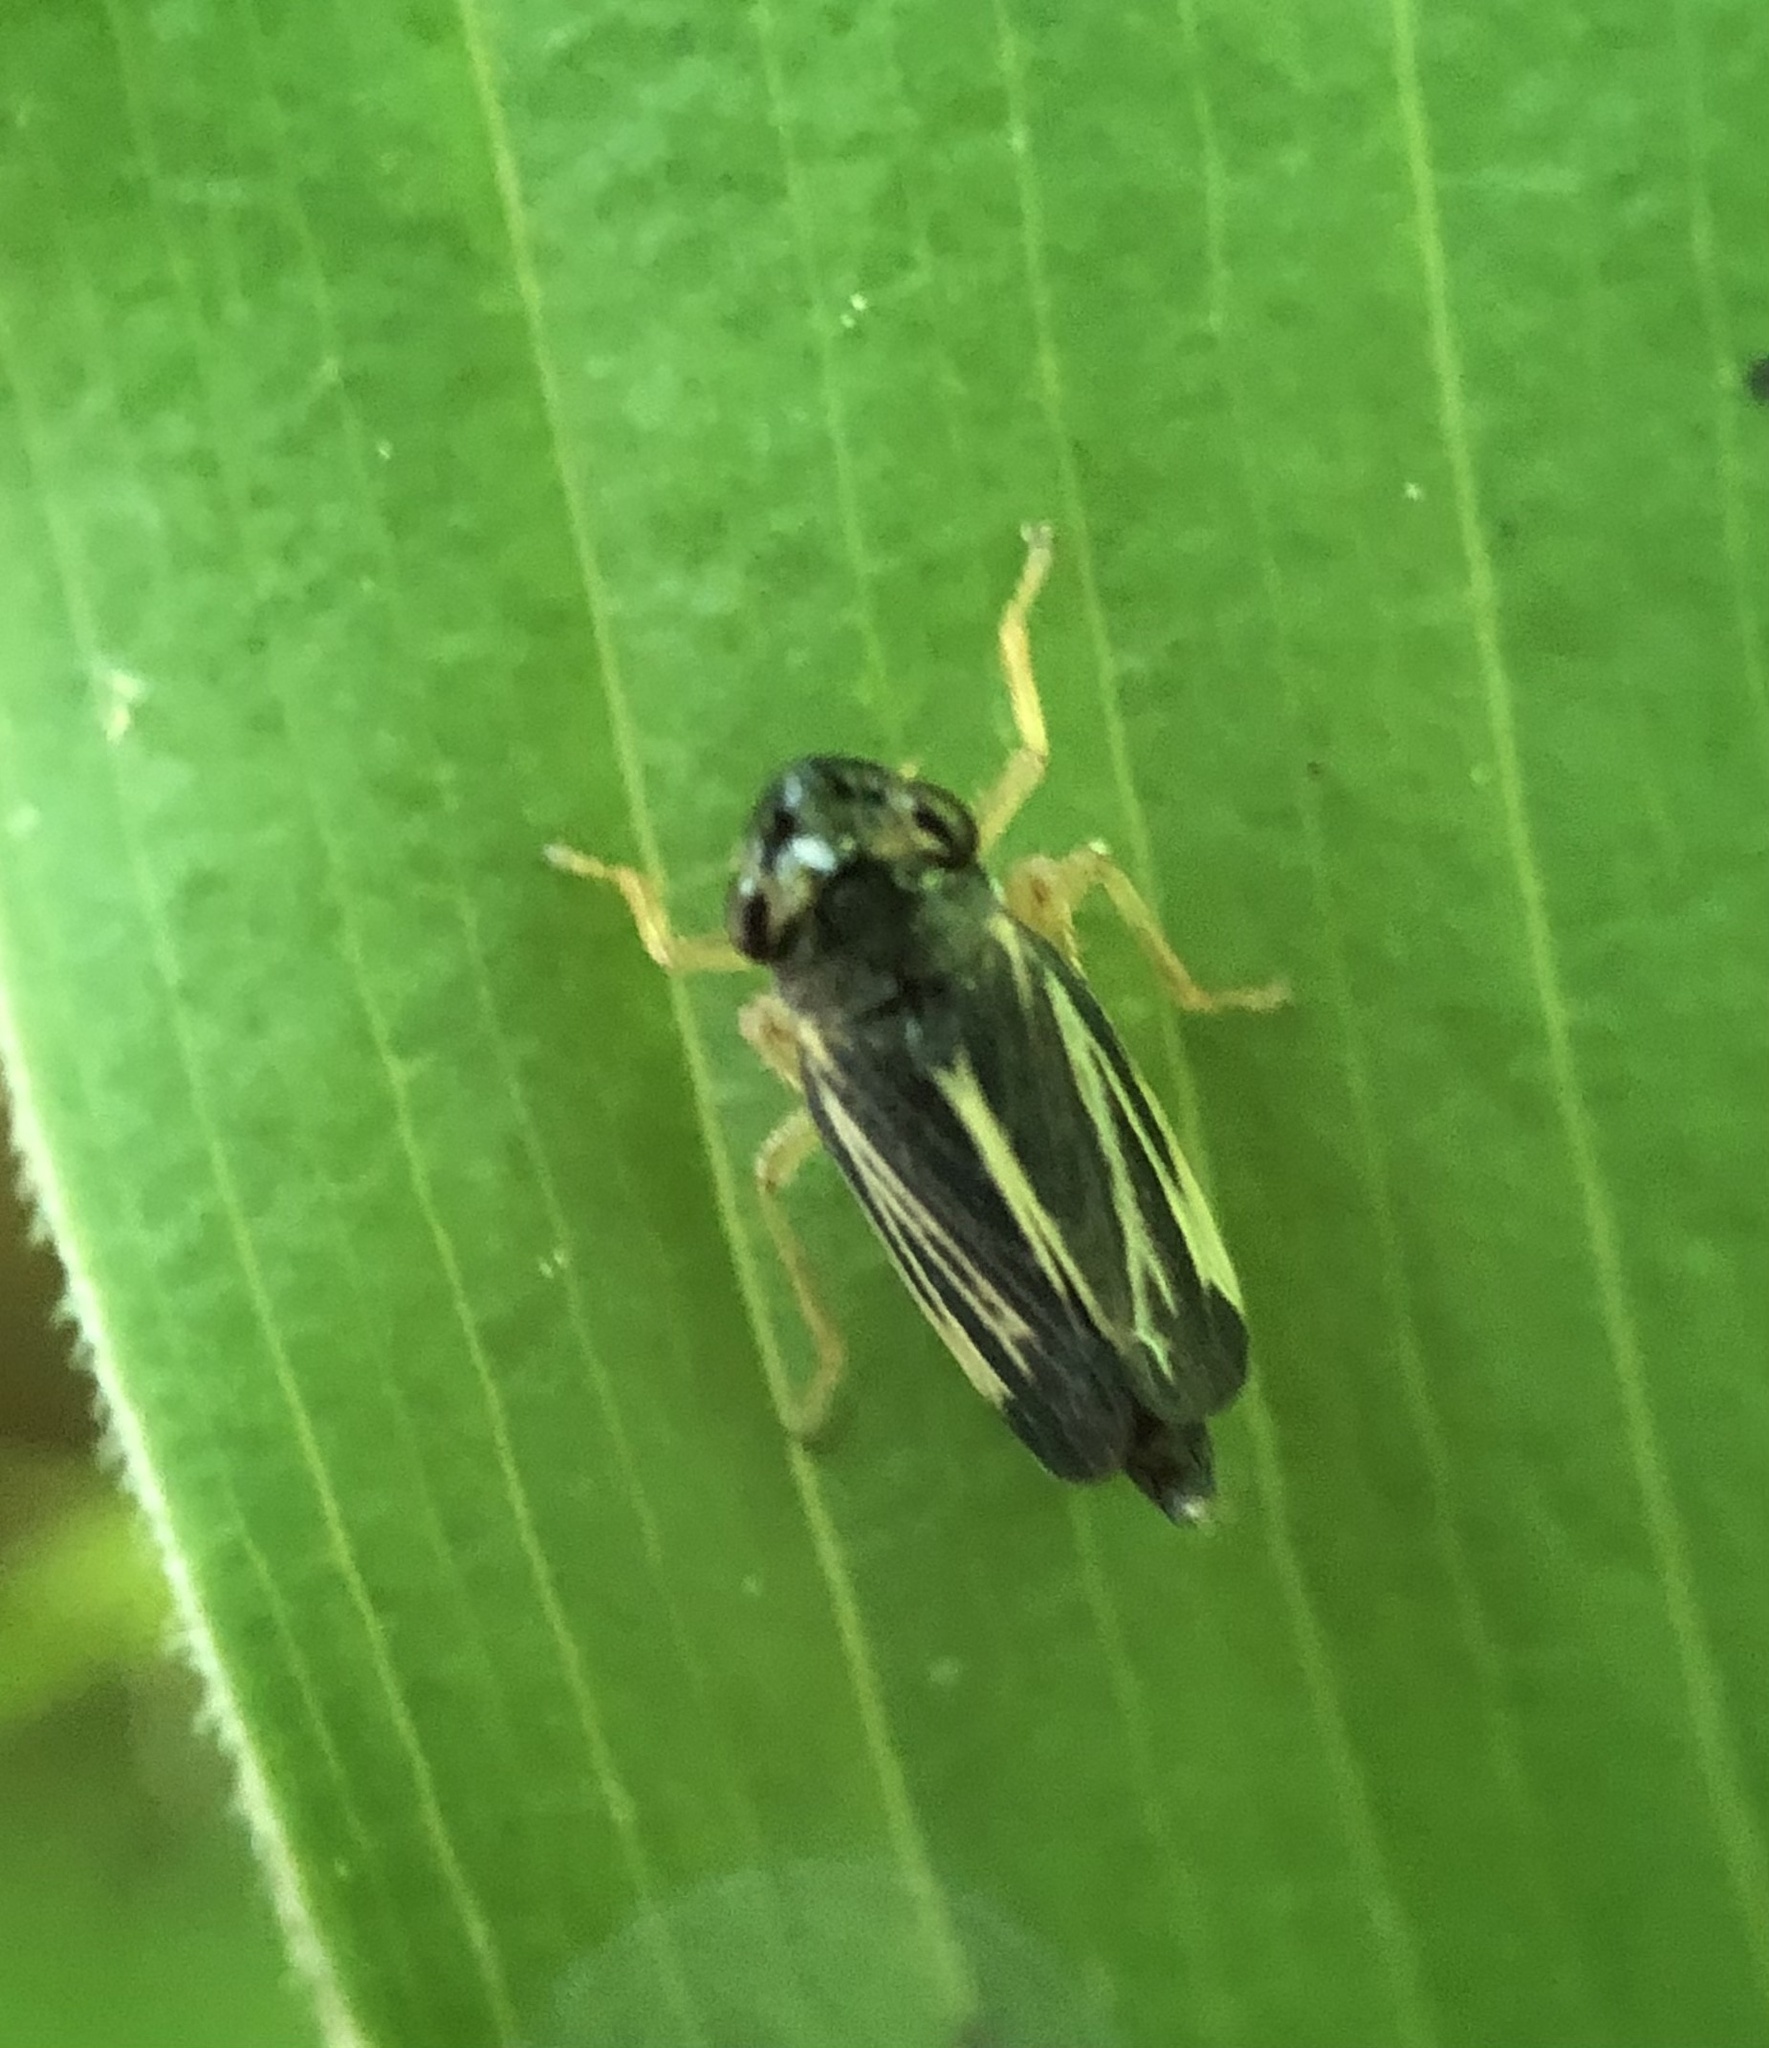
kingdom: Animalia
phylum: Arthropoda
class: Insecta
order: Hemiptera
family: Cicadellidae
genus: Evacanthus
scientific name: Evacanthus nigramericanus
